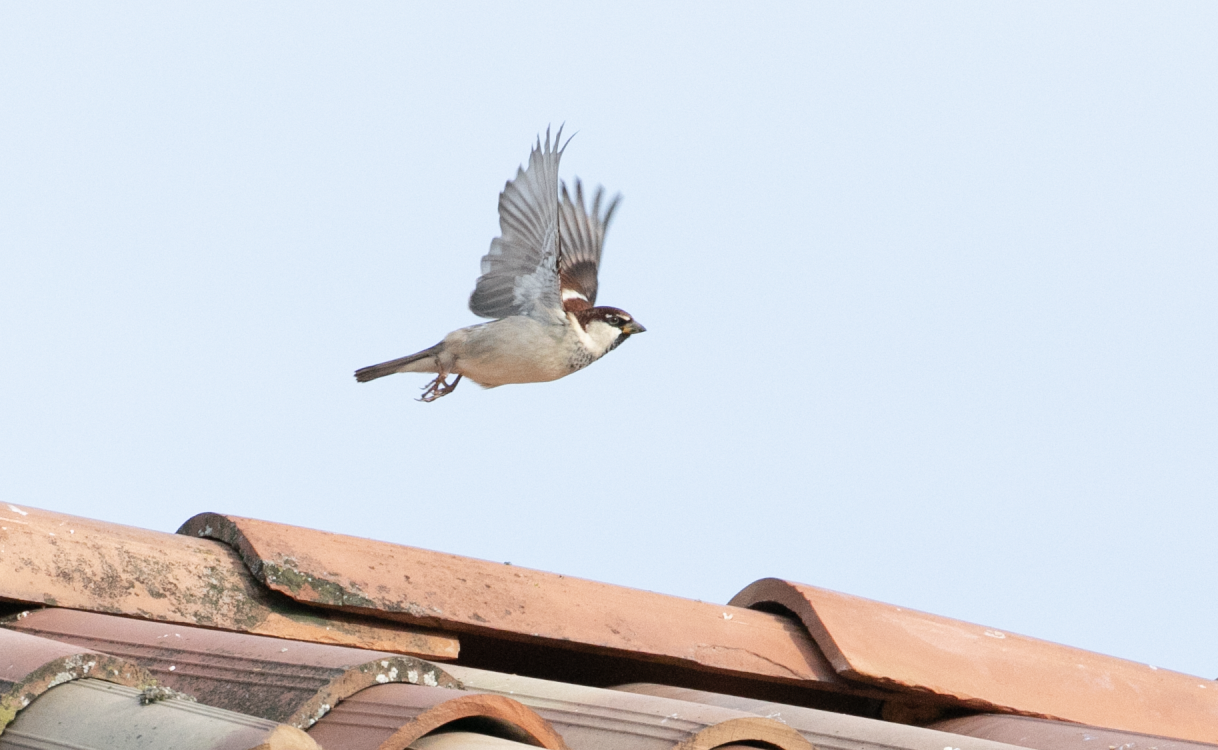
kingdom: Animalia
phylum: Chordata
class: Aves
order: Passeriformes
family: Passeridae
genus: Passer
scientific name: Passer italiae
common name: Italian sparrow
